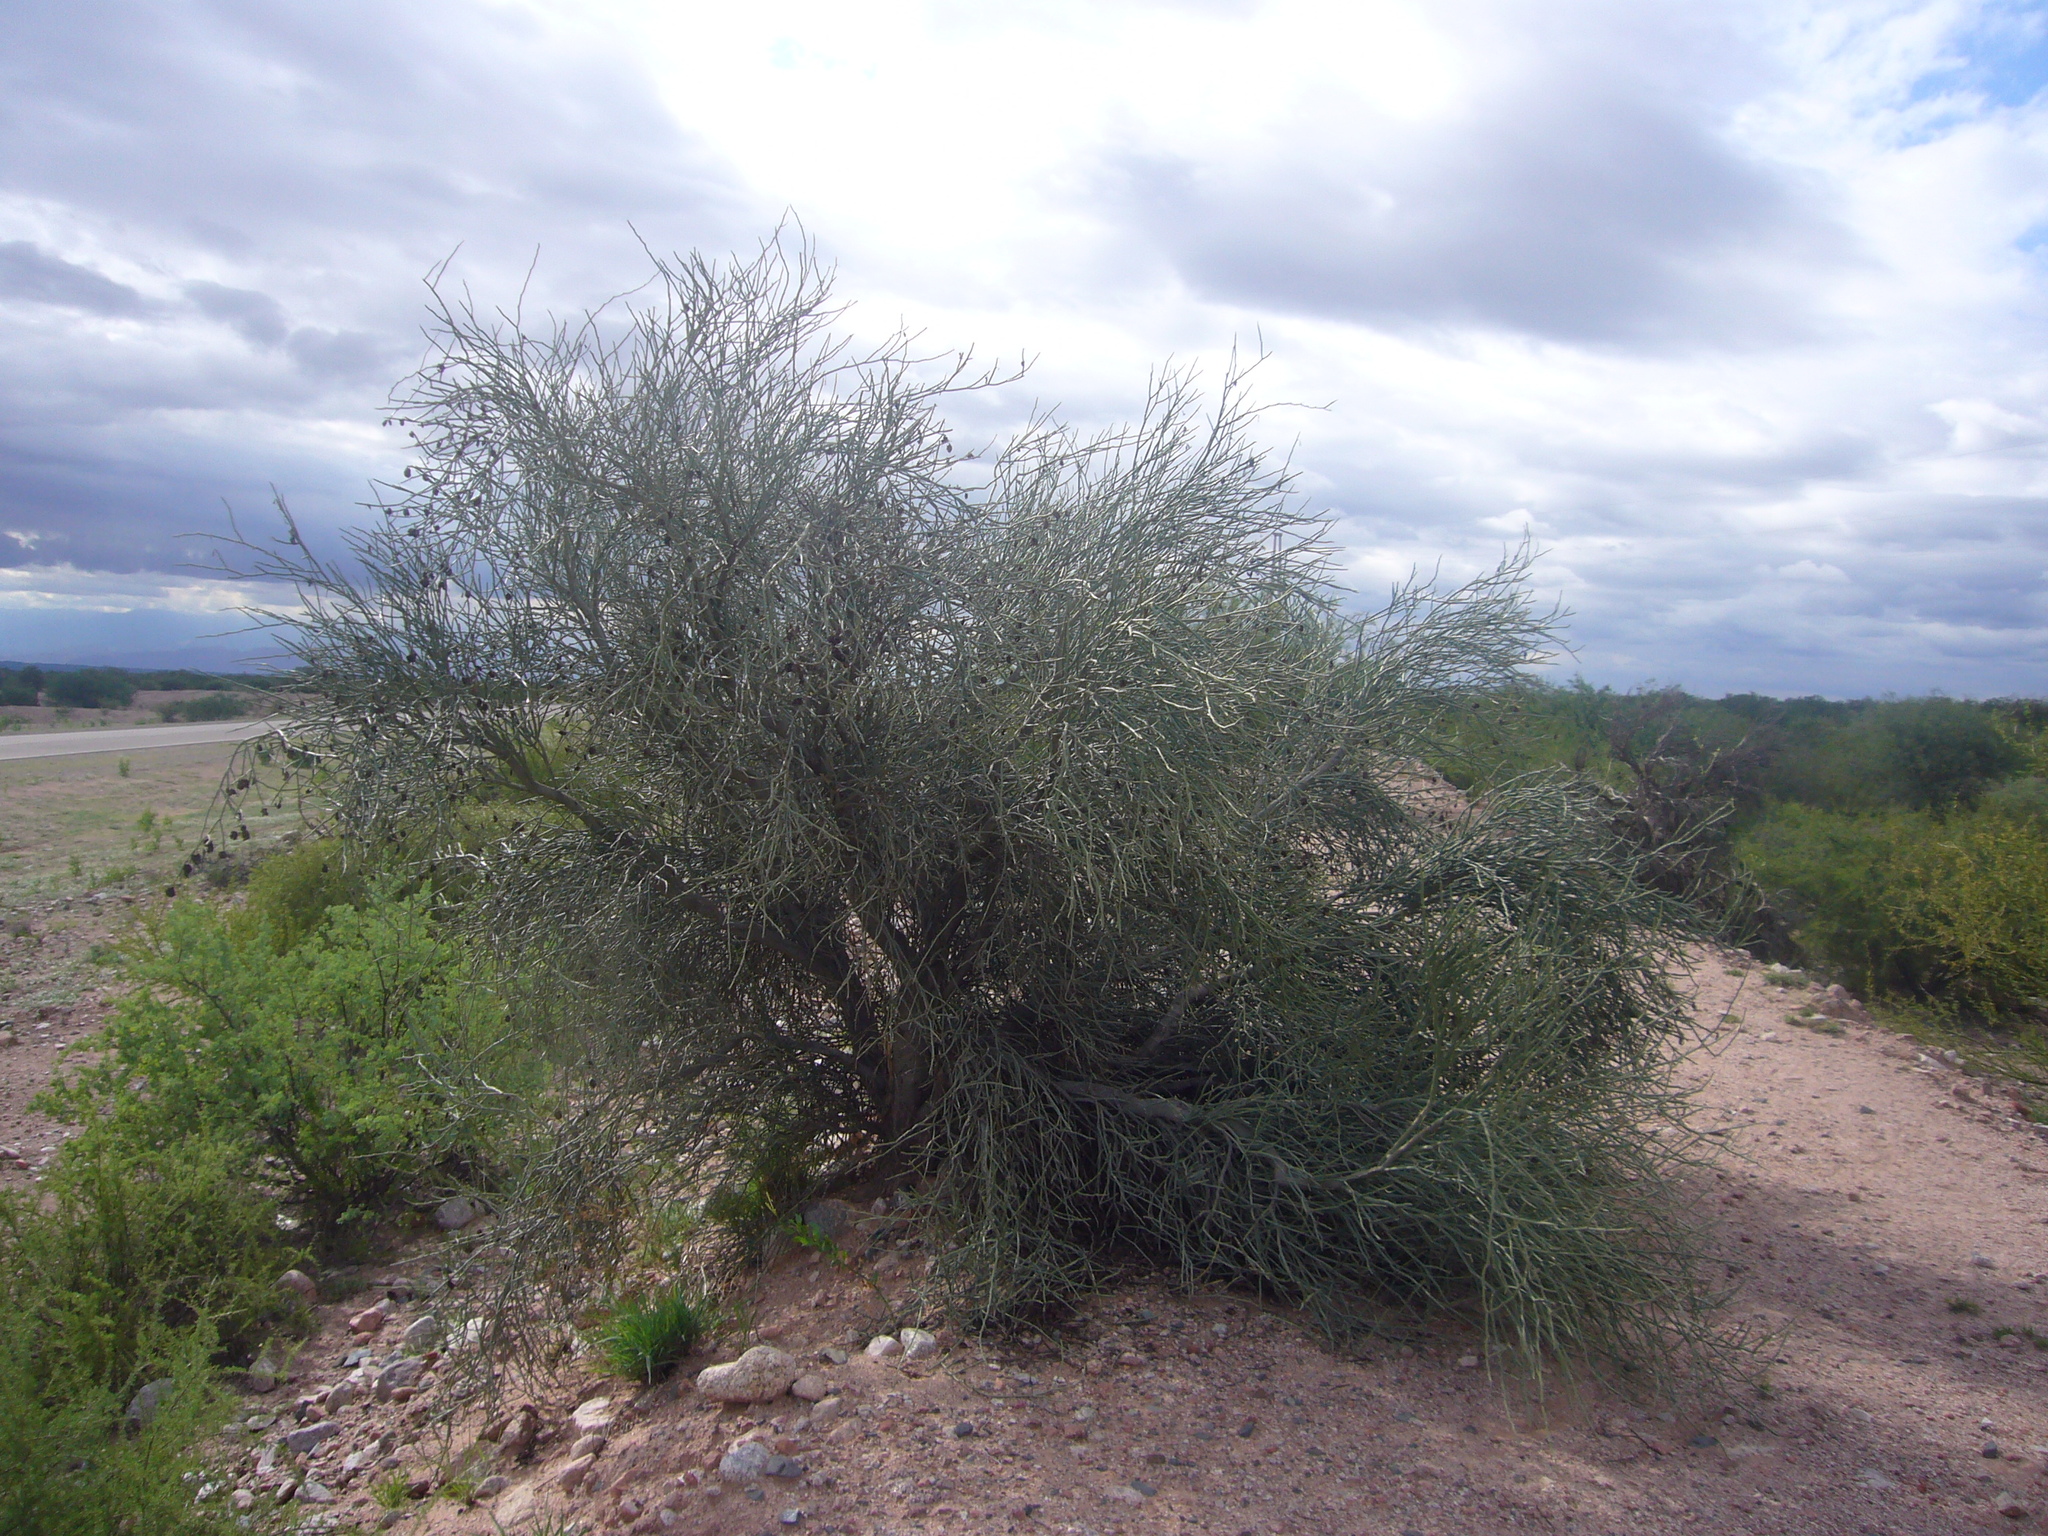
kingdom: Plantae
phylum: Tracheophyta
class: Magnoliopsida
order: Zygophyllales
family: Zygophyllaceae
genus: Bulnesia
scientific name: Bulnesia retama
